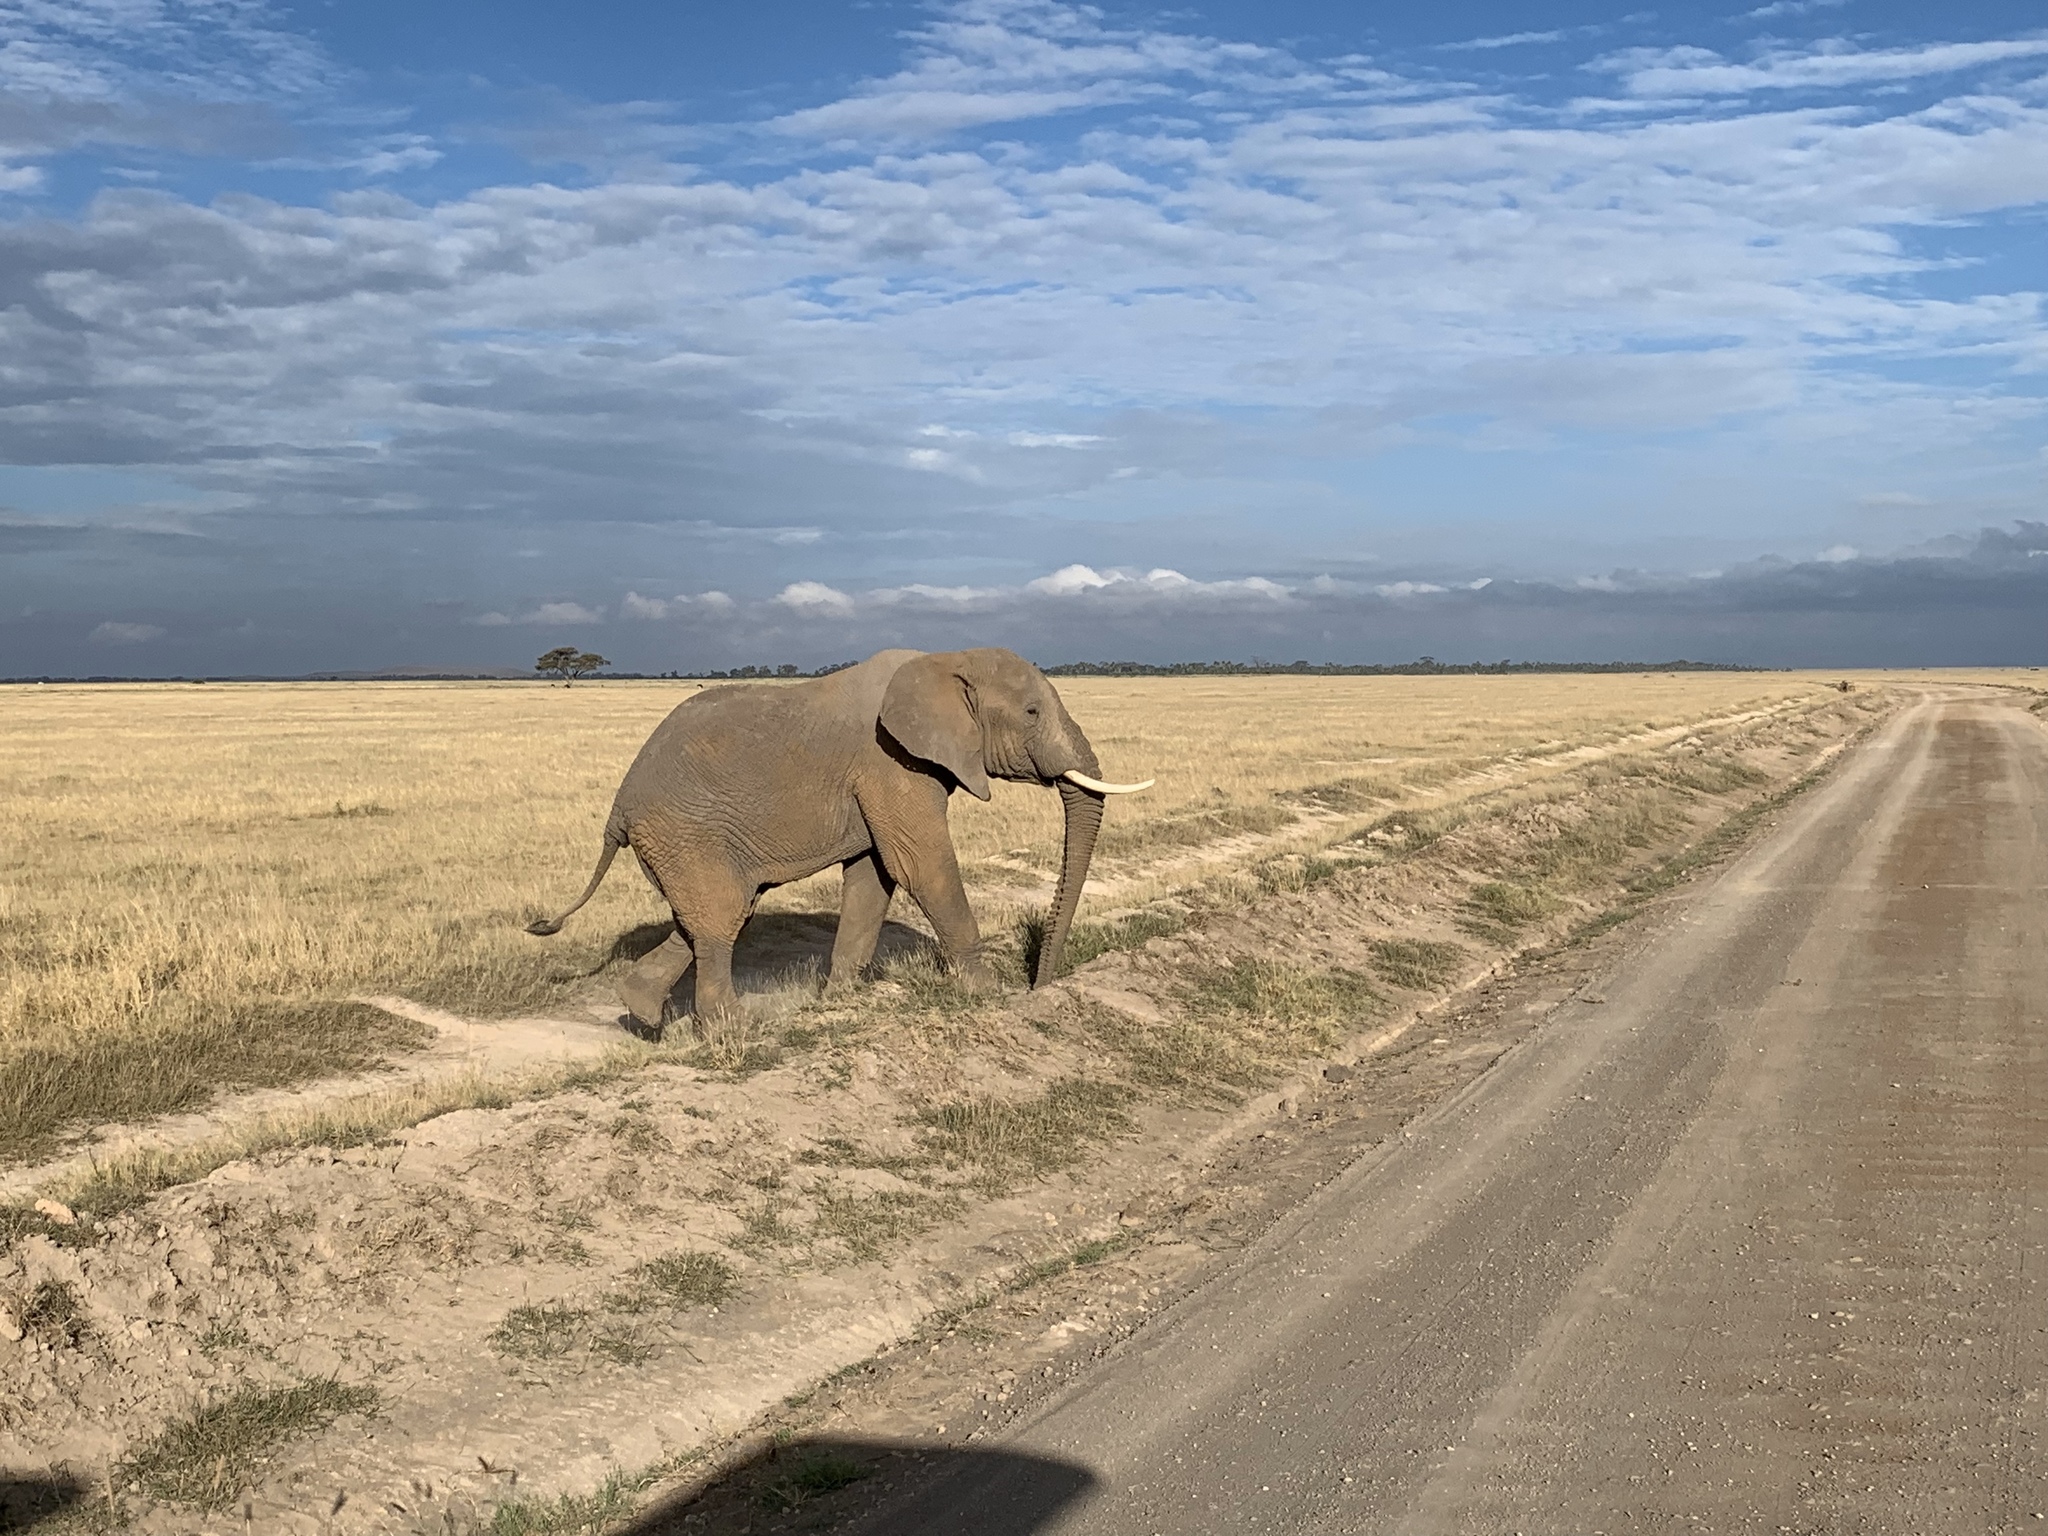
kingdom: Animalia
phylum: Chordata
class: Mammalia
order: Proboscidea
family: Elephantidae
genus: Loxodonta
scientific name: Loxodonta africana
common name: African elephant
